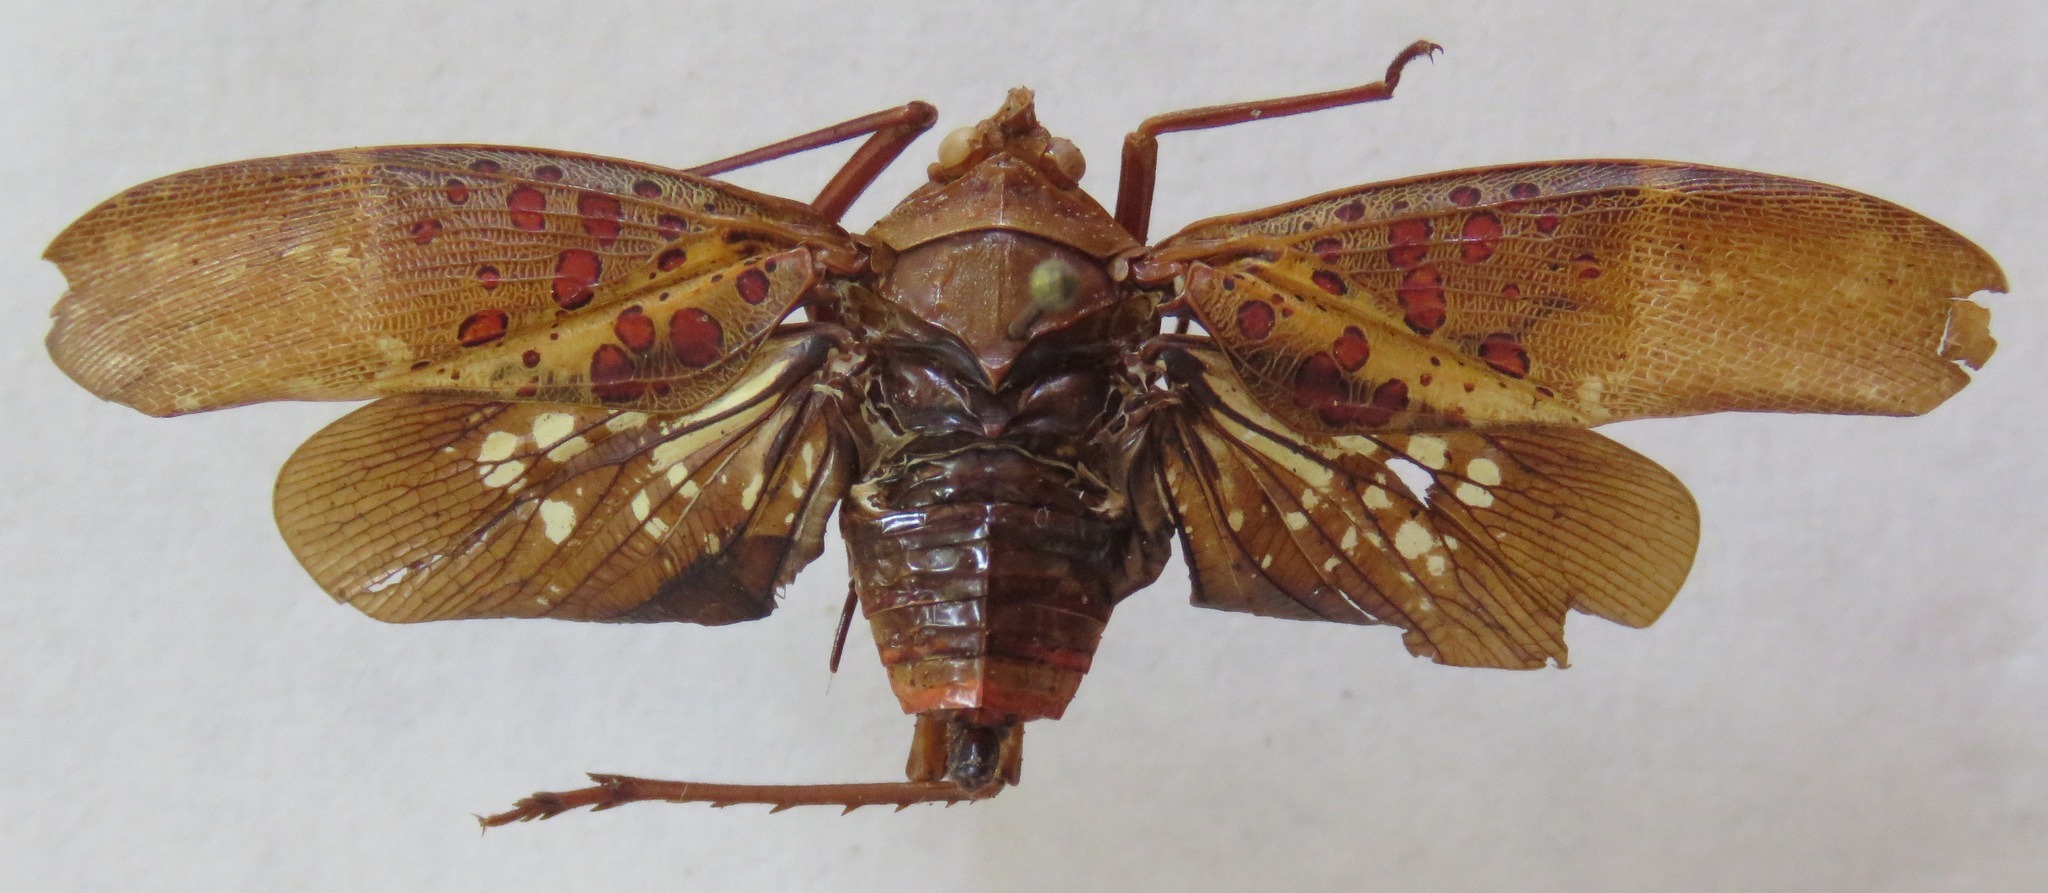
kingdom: Animalia
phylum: Arthropoda
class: Insecta
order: Hemiptera
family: Fulgoridae
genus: Copidocephala
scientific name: Copidocephala viridiguttata
